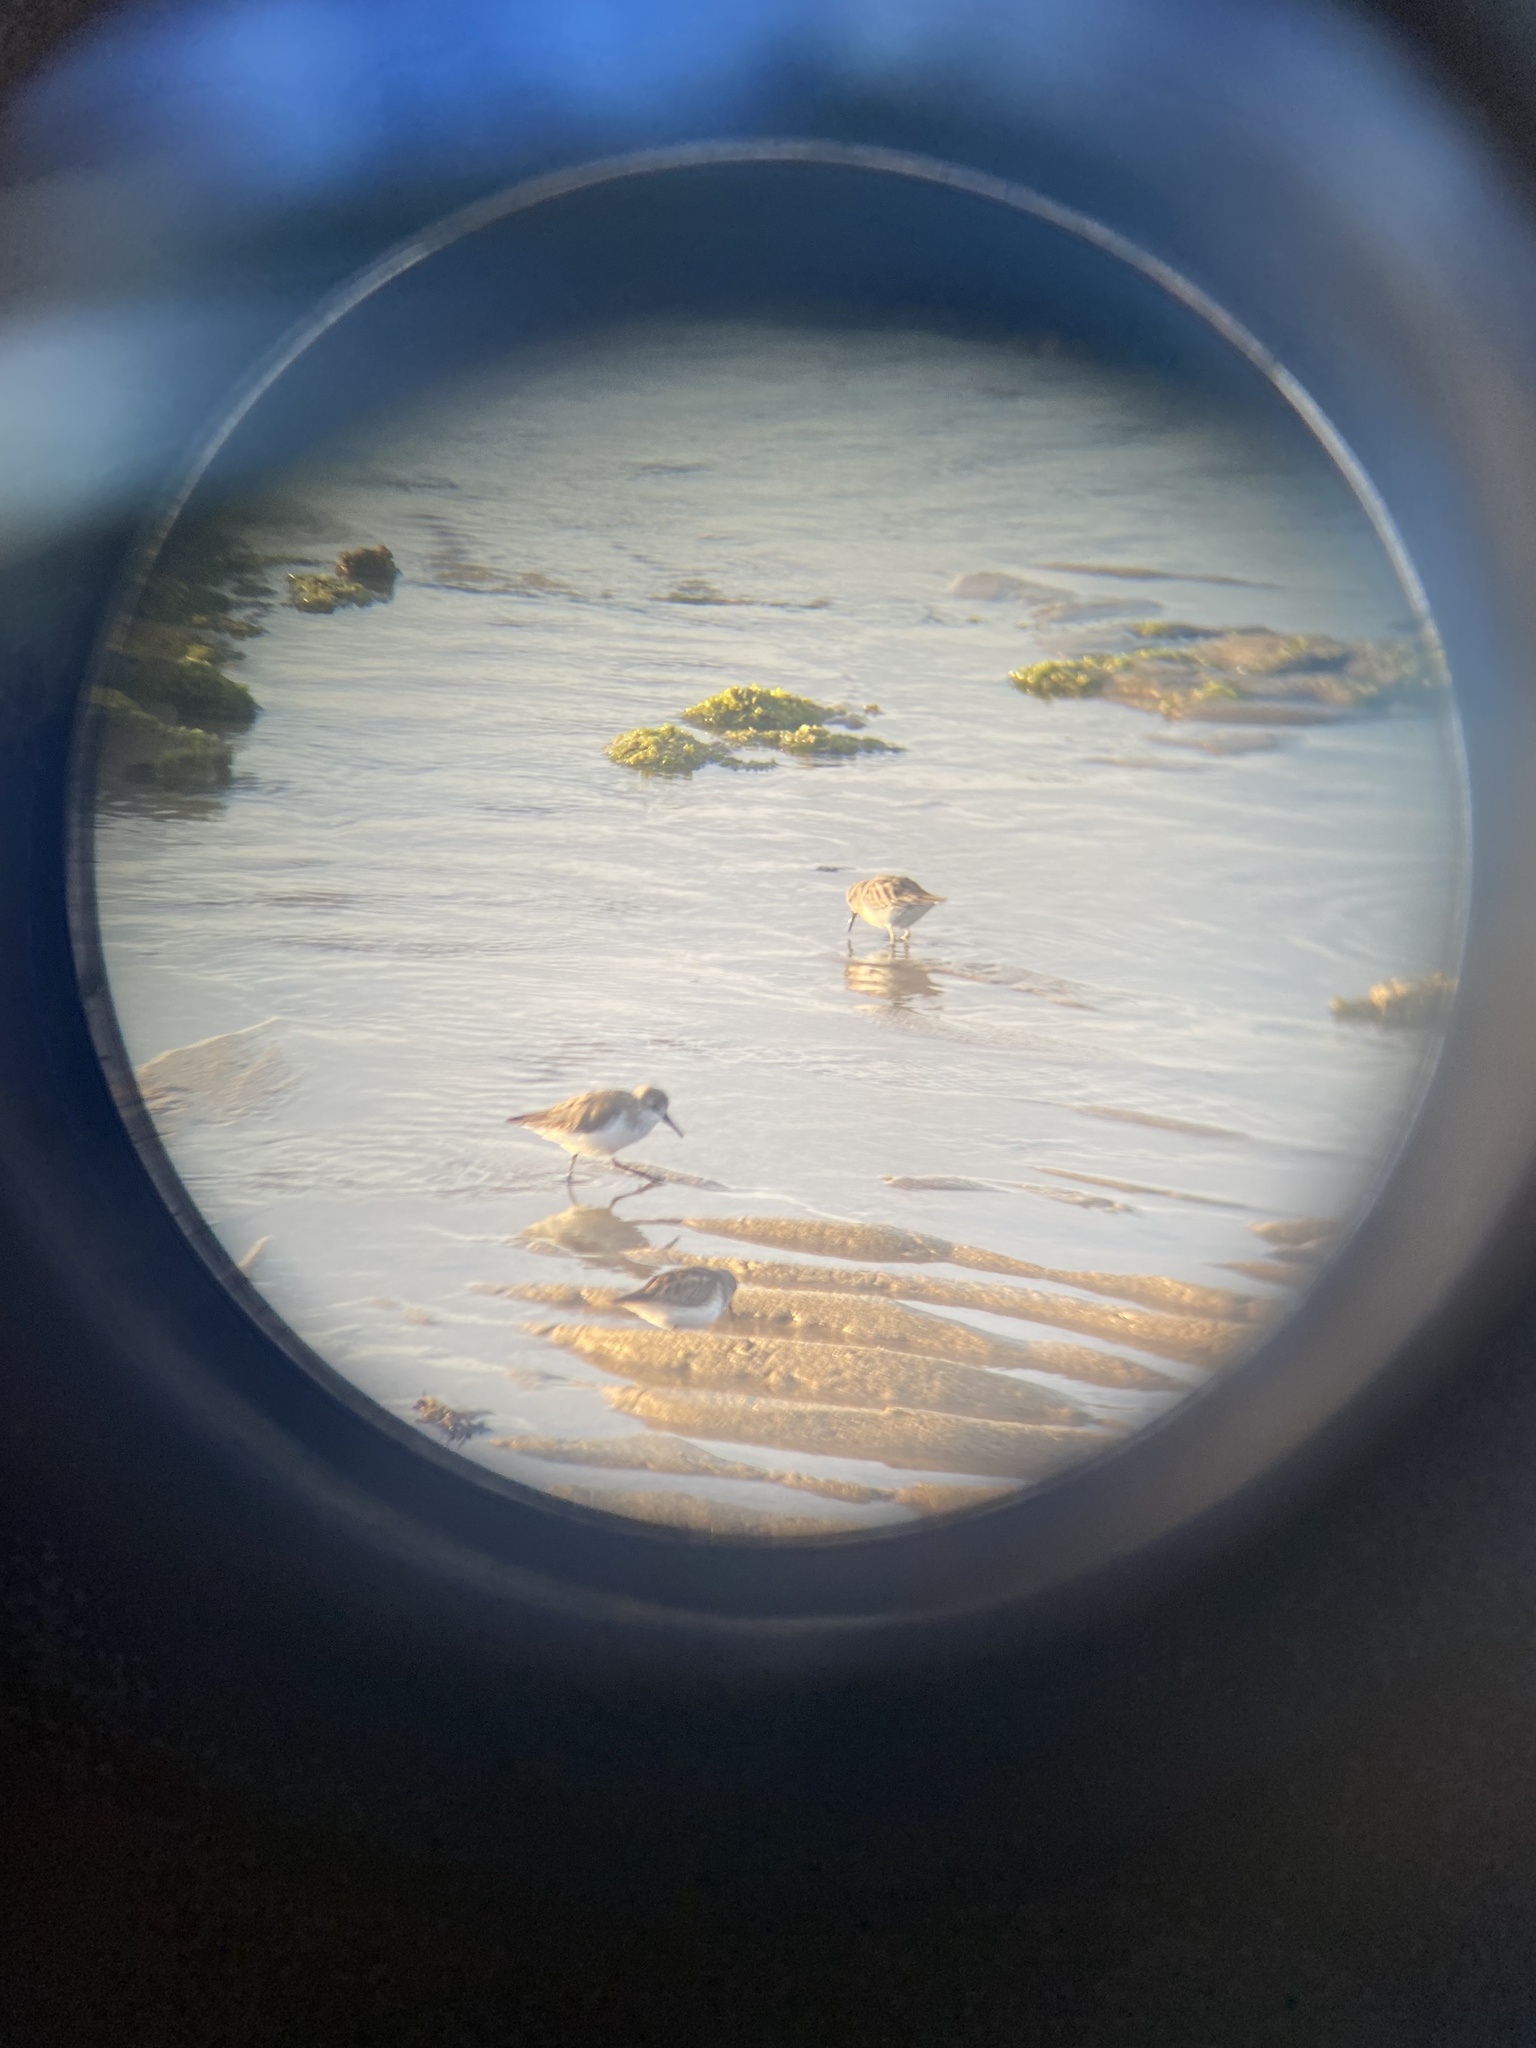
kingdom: Animalia
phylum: Chordata
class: Aves
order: Charadriiformes
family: Scolopacidae
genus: Calidris
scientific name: Calidris mauri
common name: Western sandpiper
